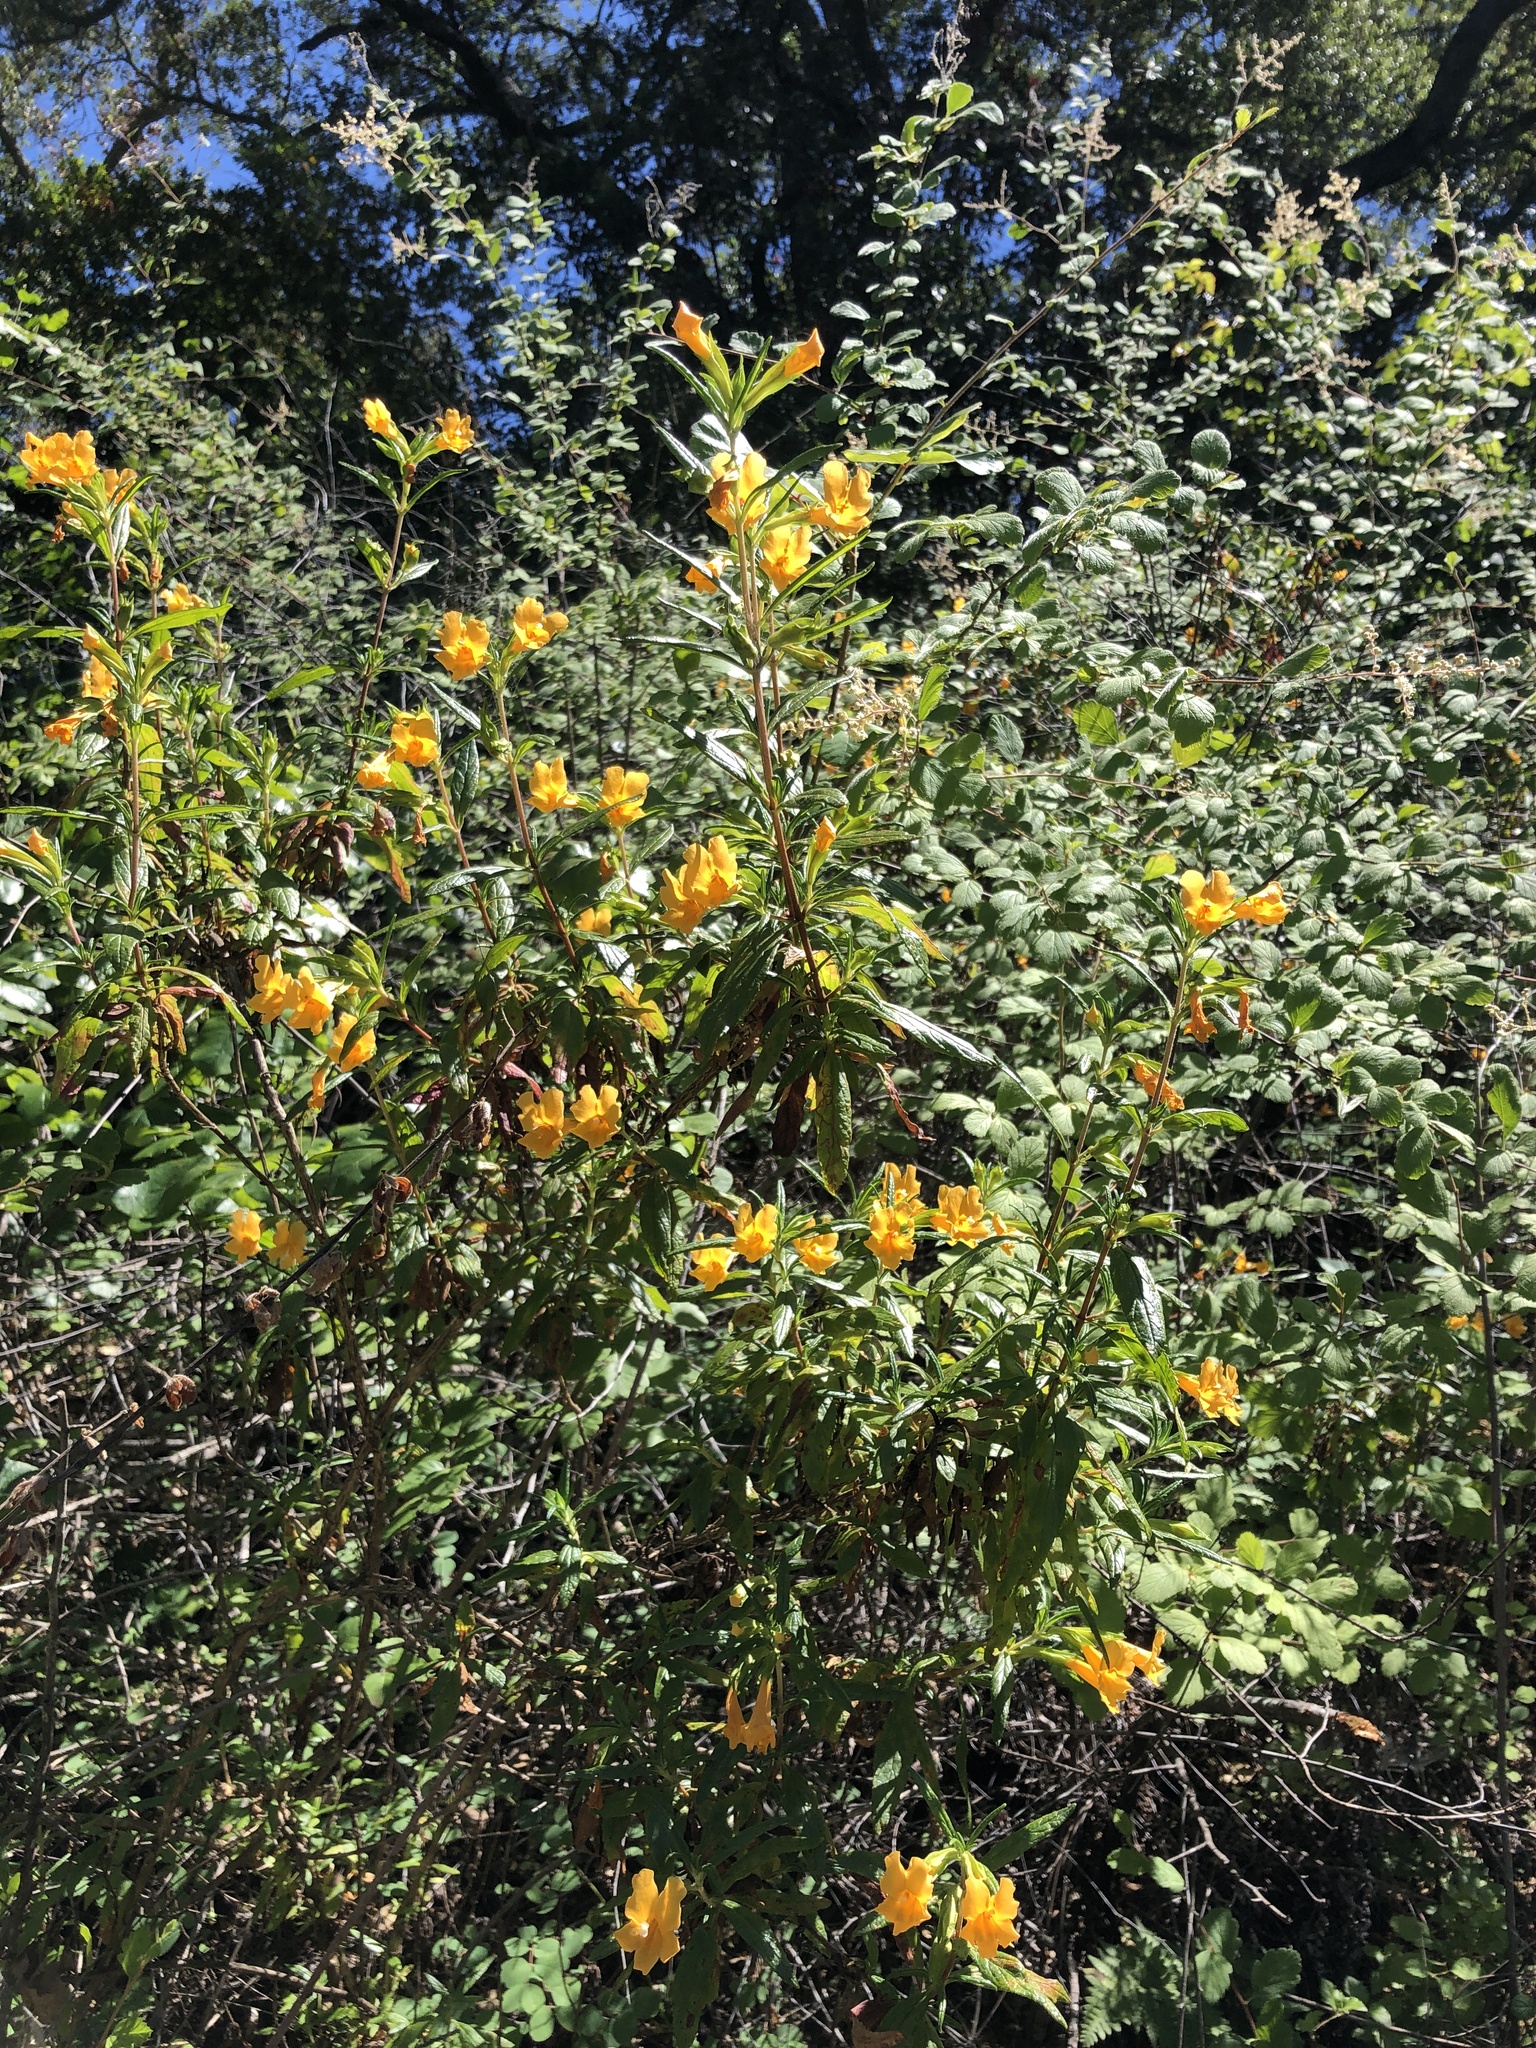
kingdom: Plantae
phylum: Tracheophyta
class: Magnoliopsida
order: Lamiales
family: Phrymaceae
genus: Diplacus
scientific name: Diplacus aurantiacus
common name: Bush monkey-flower
